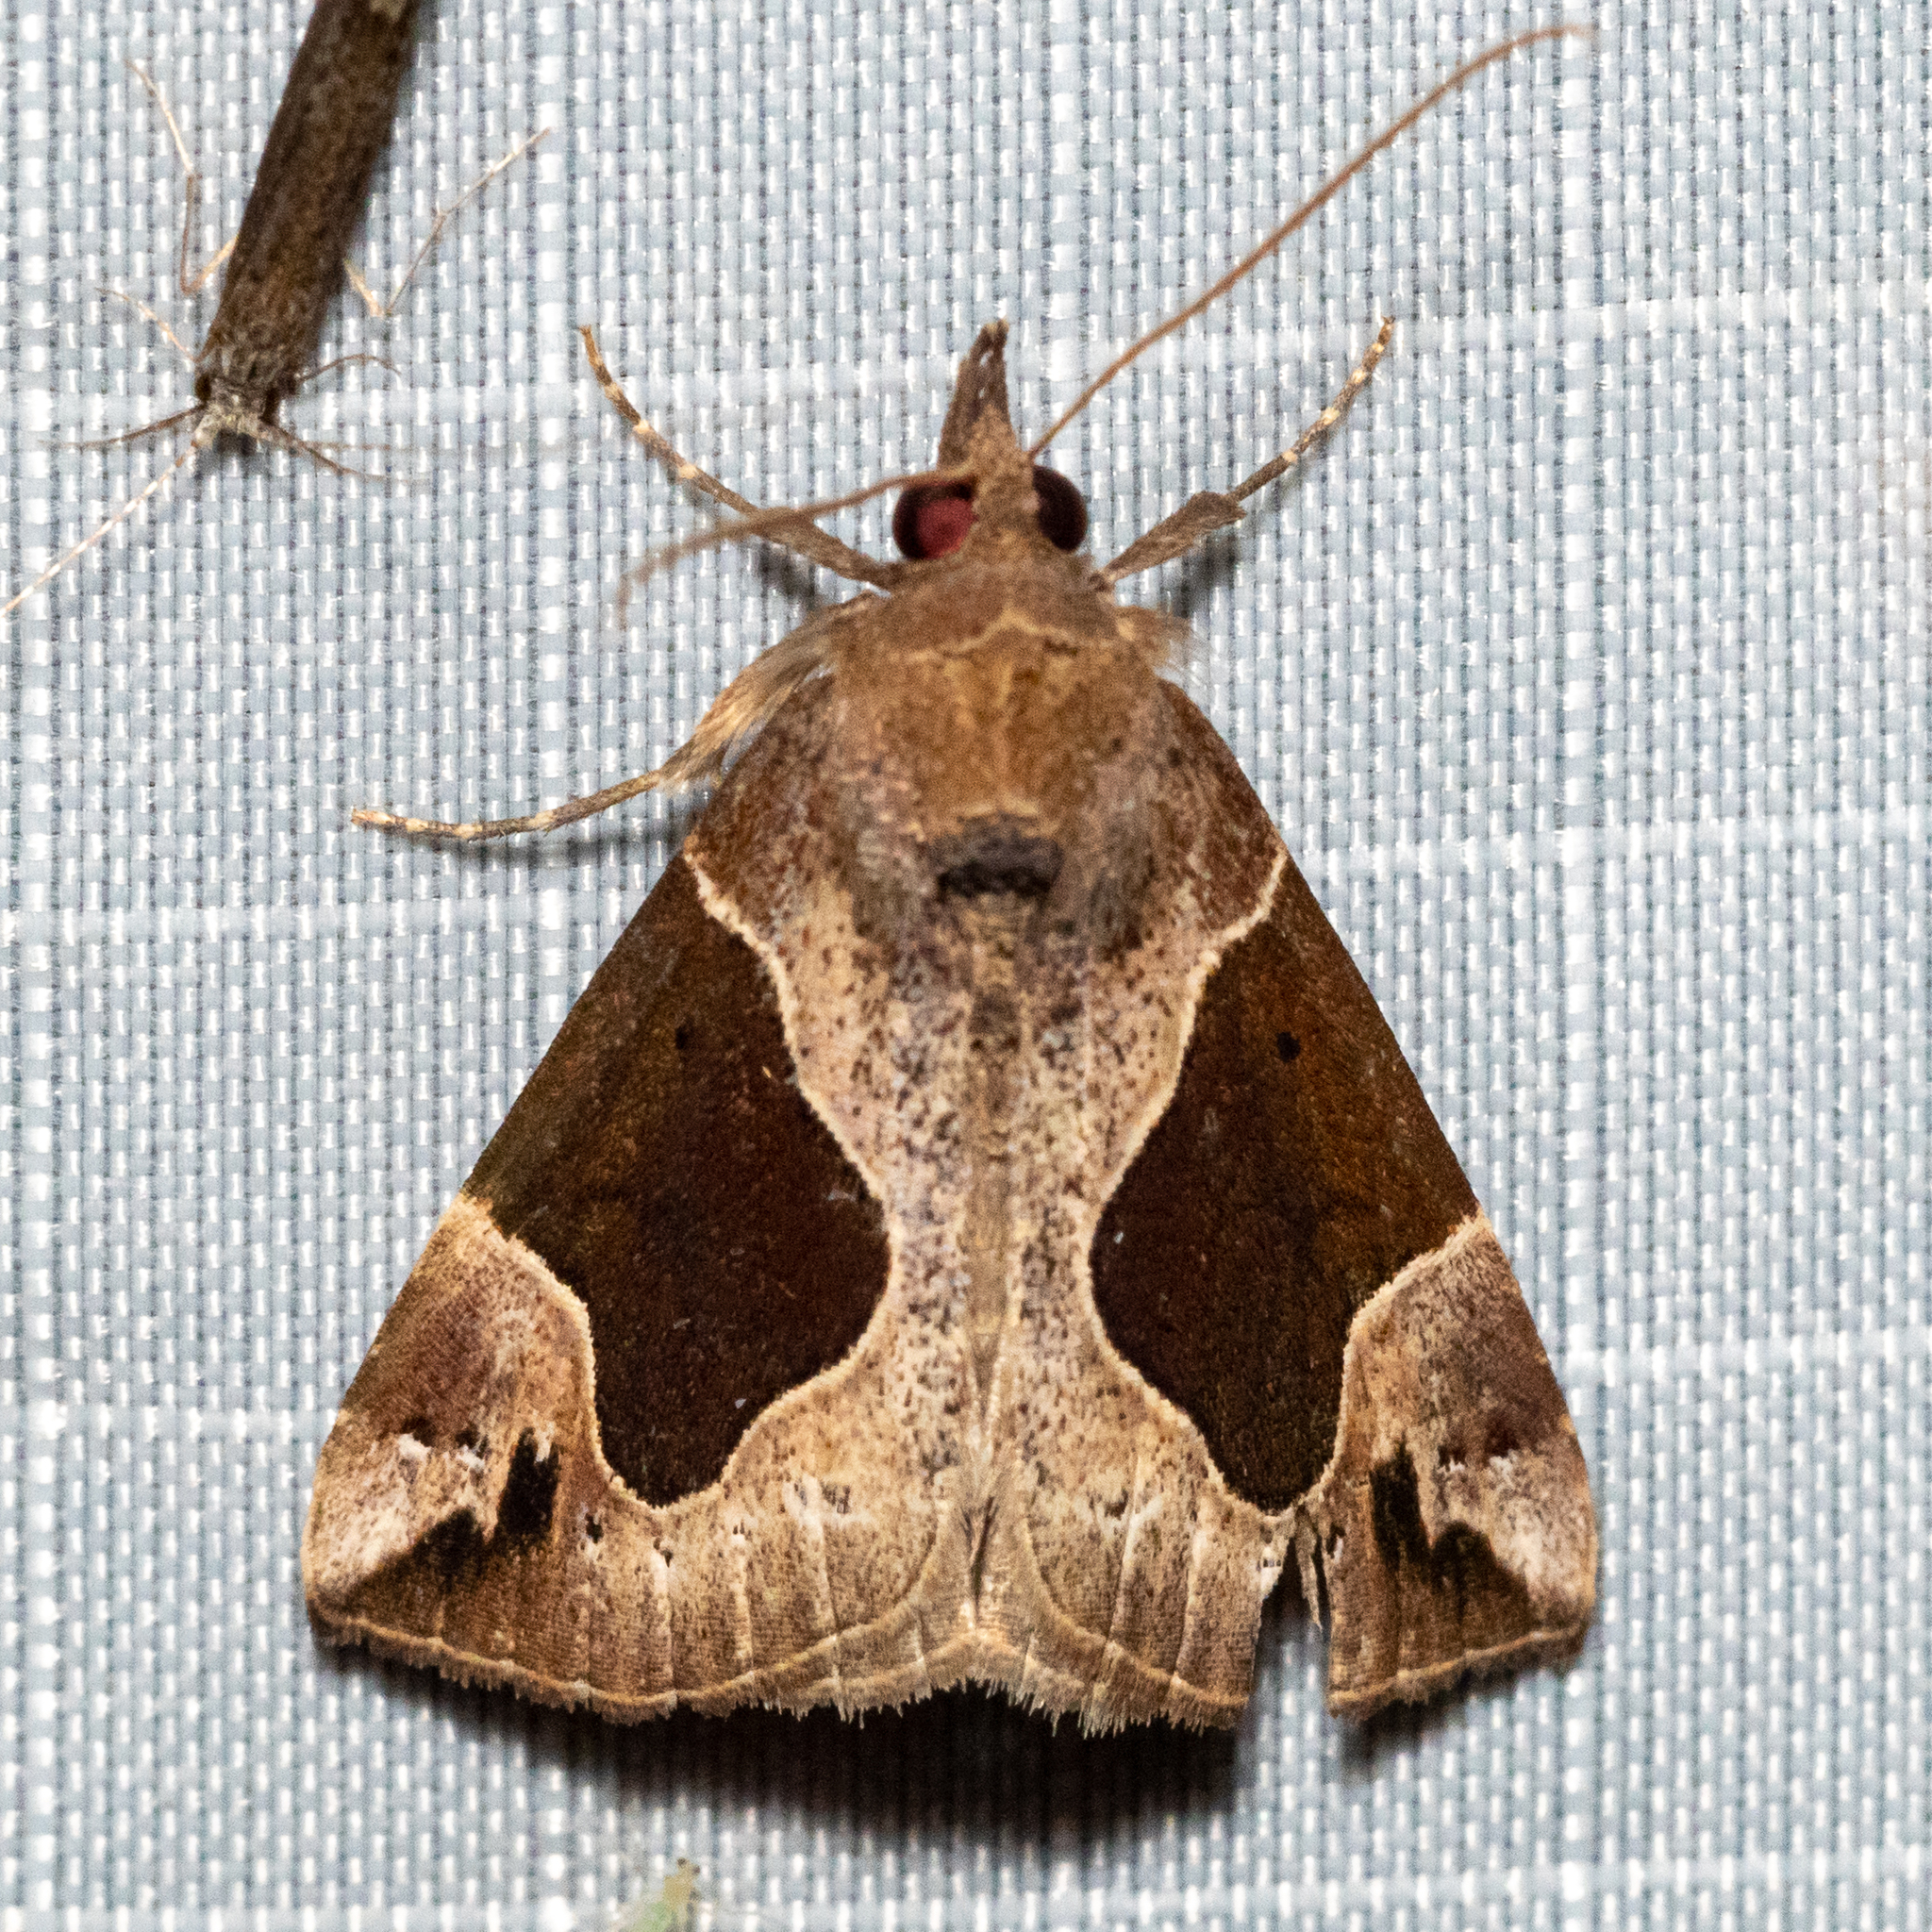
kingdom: Animalia
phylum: Arthropoda
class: Insecta
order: Lepidoptera
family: Erebidae
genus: Hypena
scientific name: Hypena manalis
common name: Flowing-line bomolocha moth
